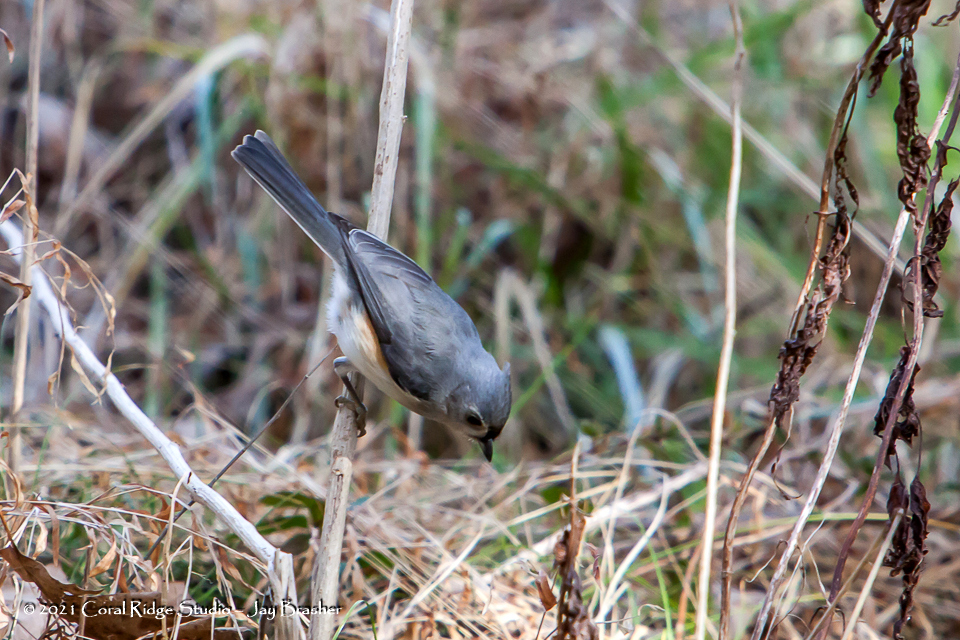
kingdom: Animalia
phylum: Chordata
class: Aves
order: Passeriformes
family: Paridae
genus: Baeolophus
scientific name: Baeolophus bicolor
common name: Tufted titmouse
